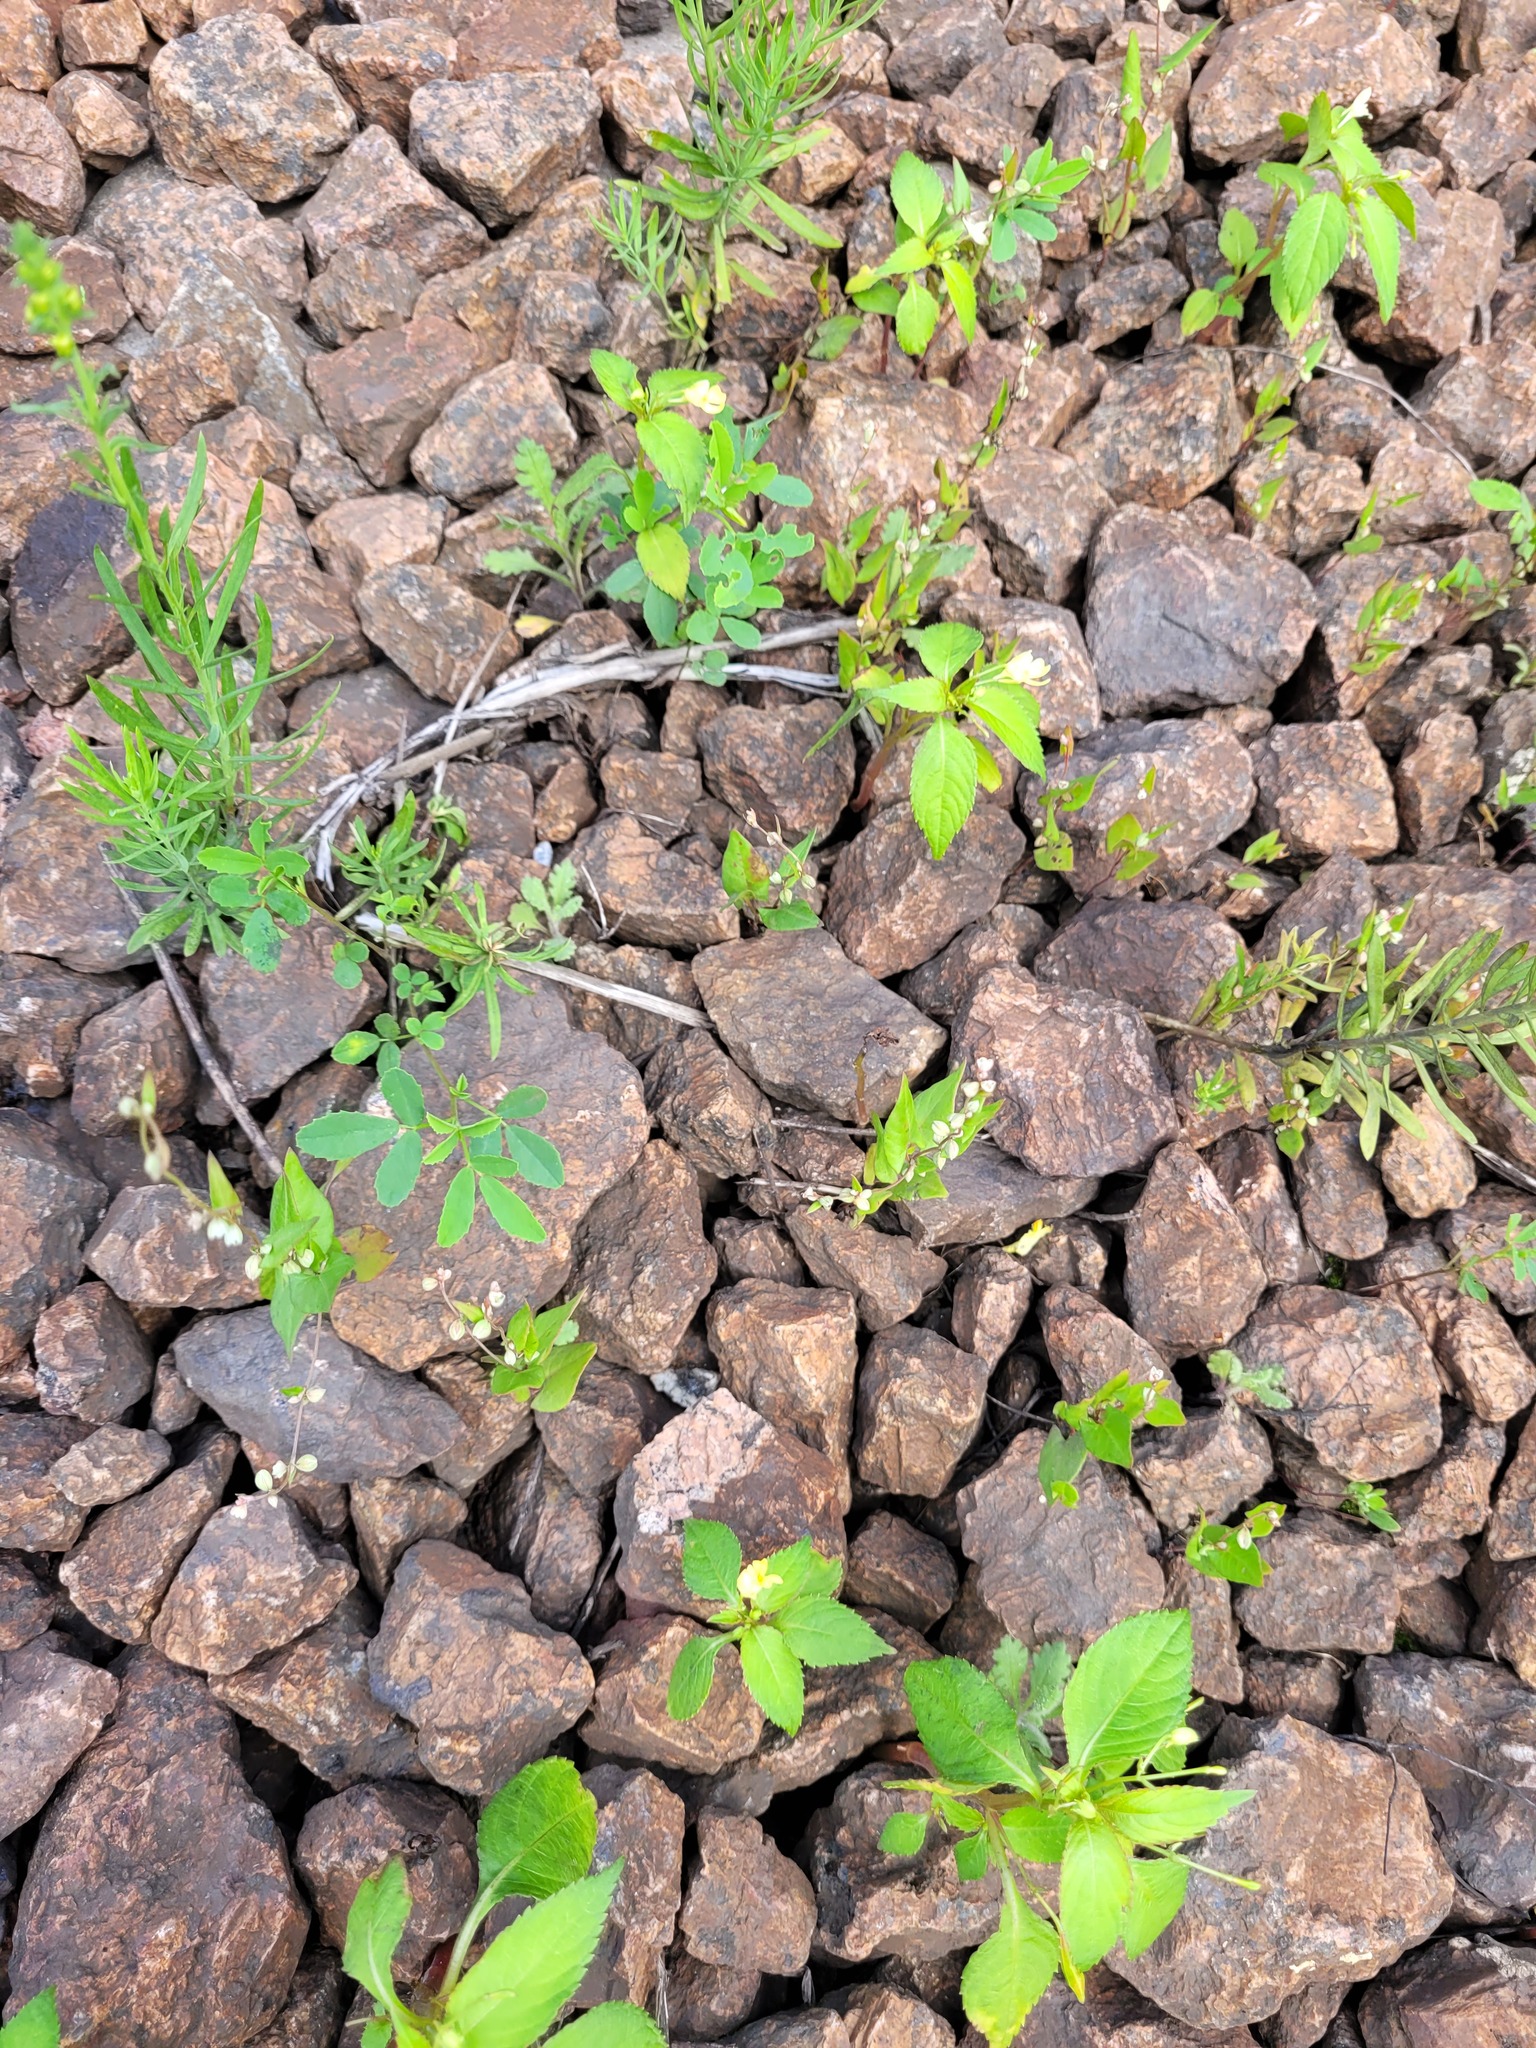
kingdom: Plantae
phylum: Tracheophyta
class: Magnoliopsida
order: Caryophyllales
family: Polygonaceae
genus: Fallopia
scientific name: Fallopia convolvulus
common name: Black bindweed
